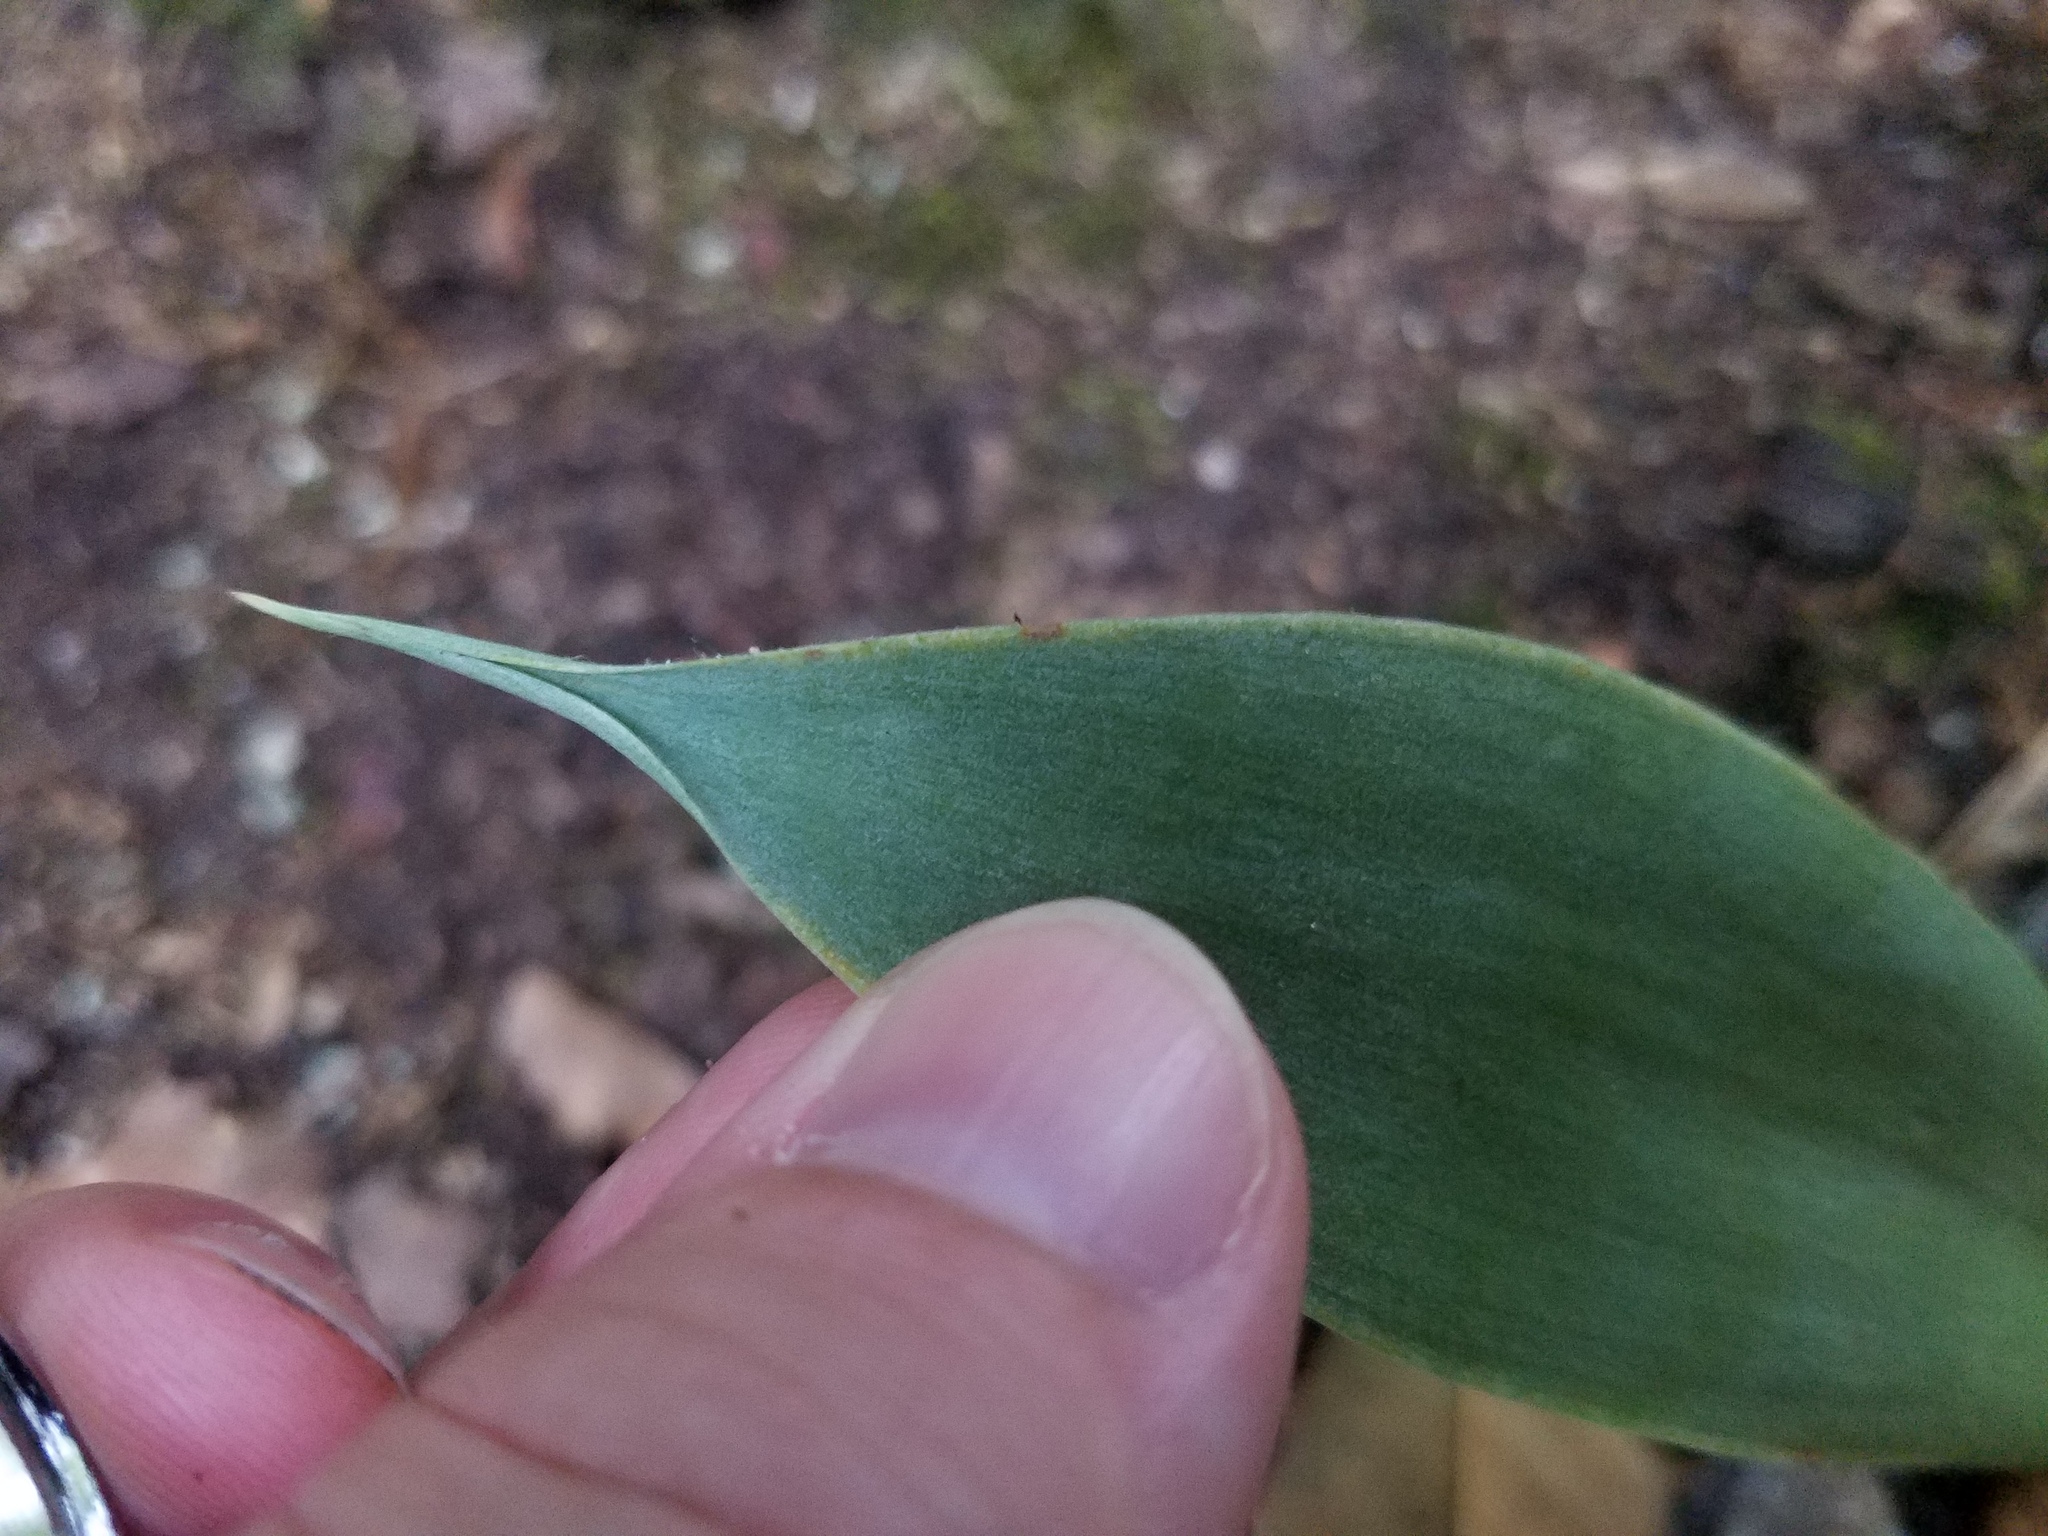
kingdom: Plantae
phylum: Tracheophyta
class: Liliopsida
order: Asparagales
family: Asparagaceae
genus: Agave
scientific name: Agave virginica
